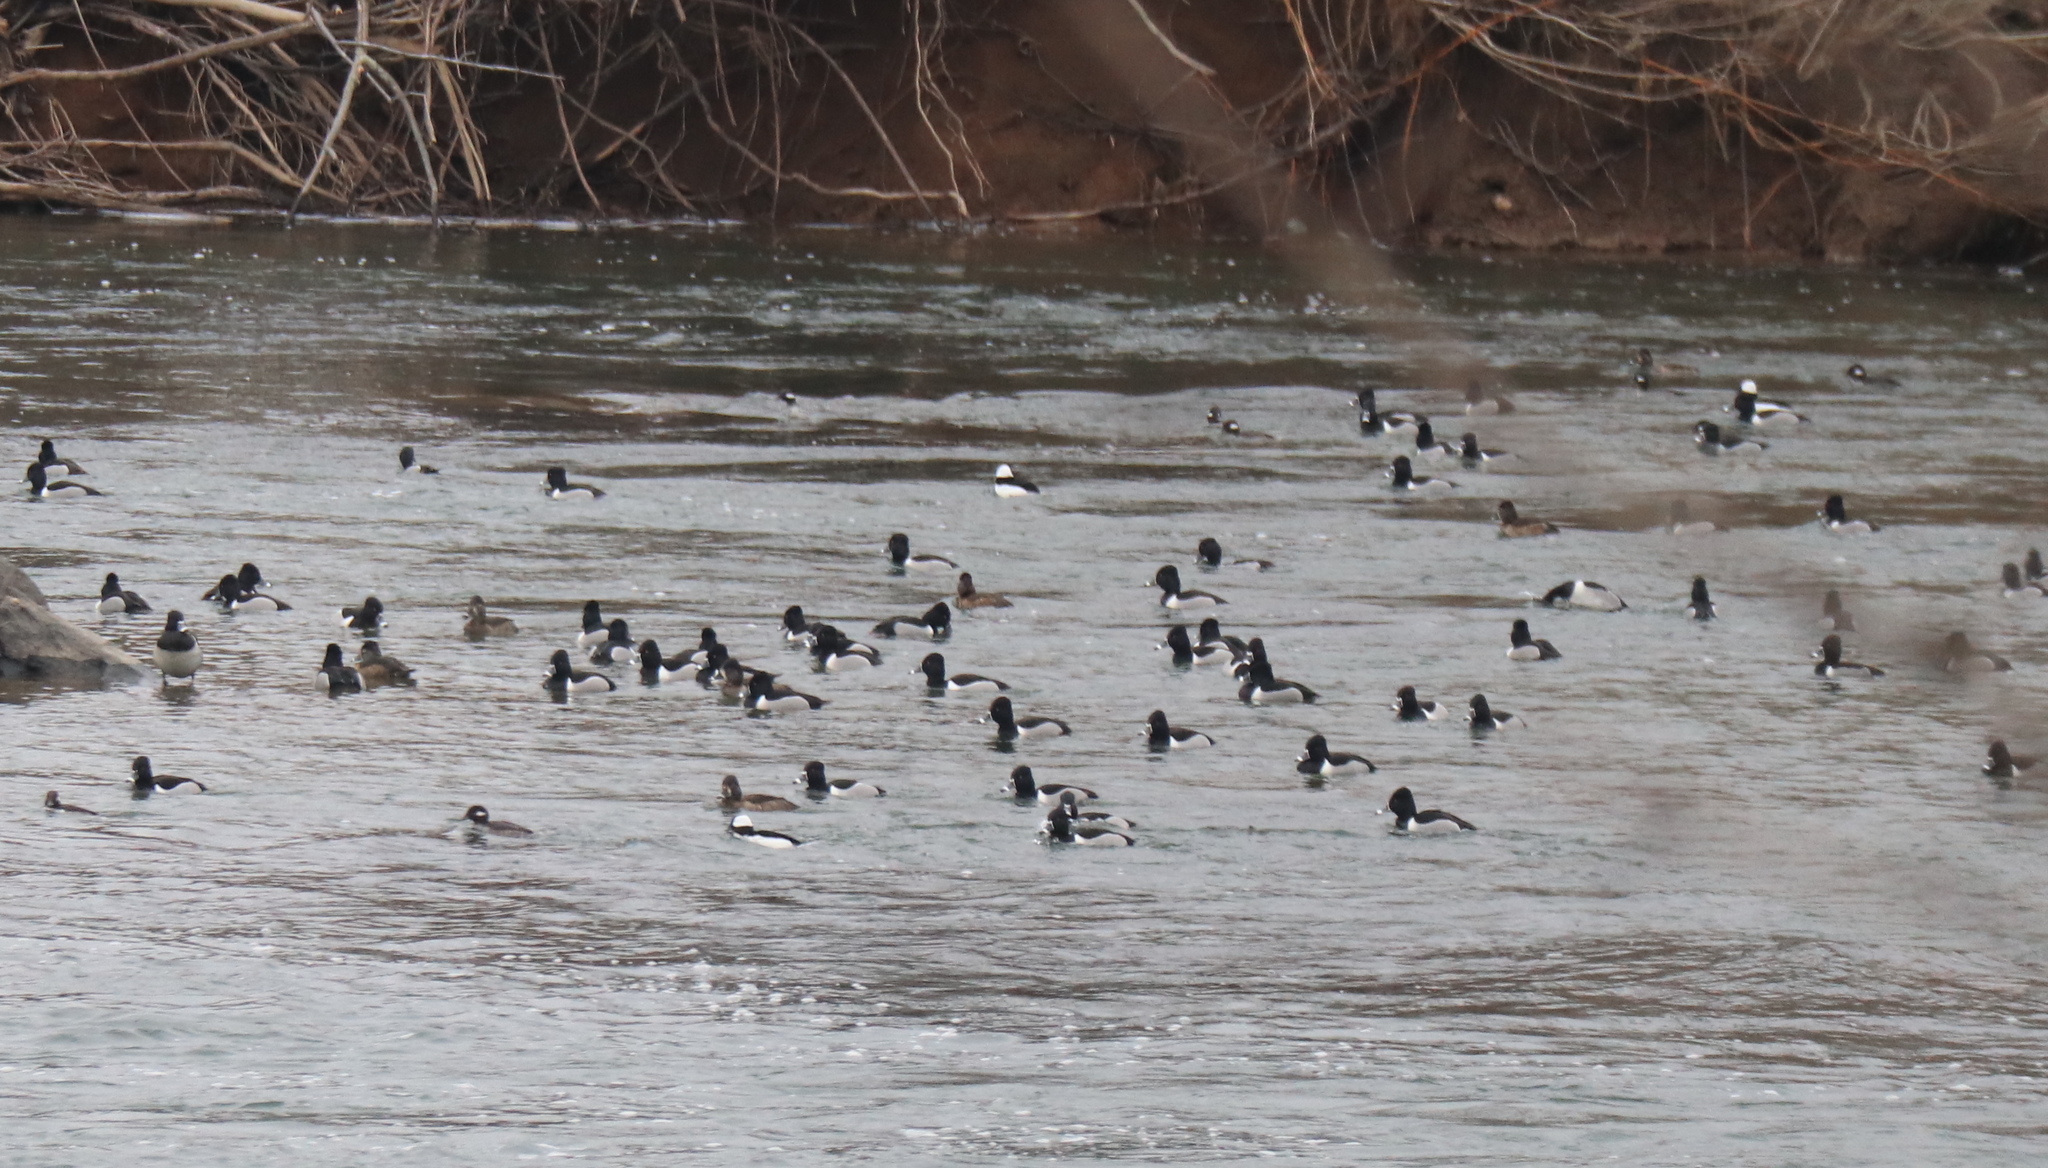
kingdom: Animalia
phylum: Chordata
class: Aves
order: Anseriformes
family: Anatidae
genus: Aythya
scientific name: Aythya collaris
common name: Ring-necked duck
